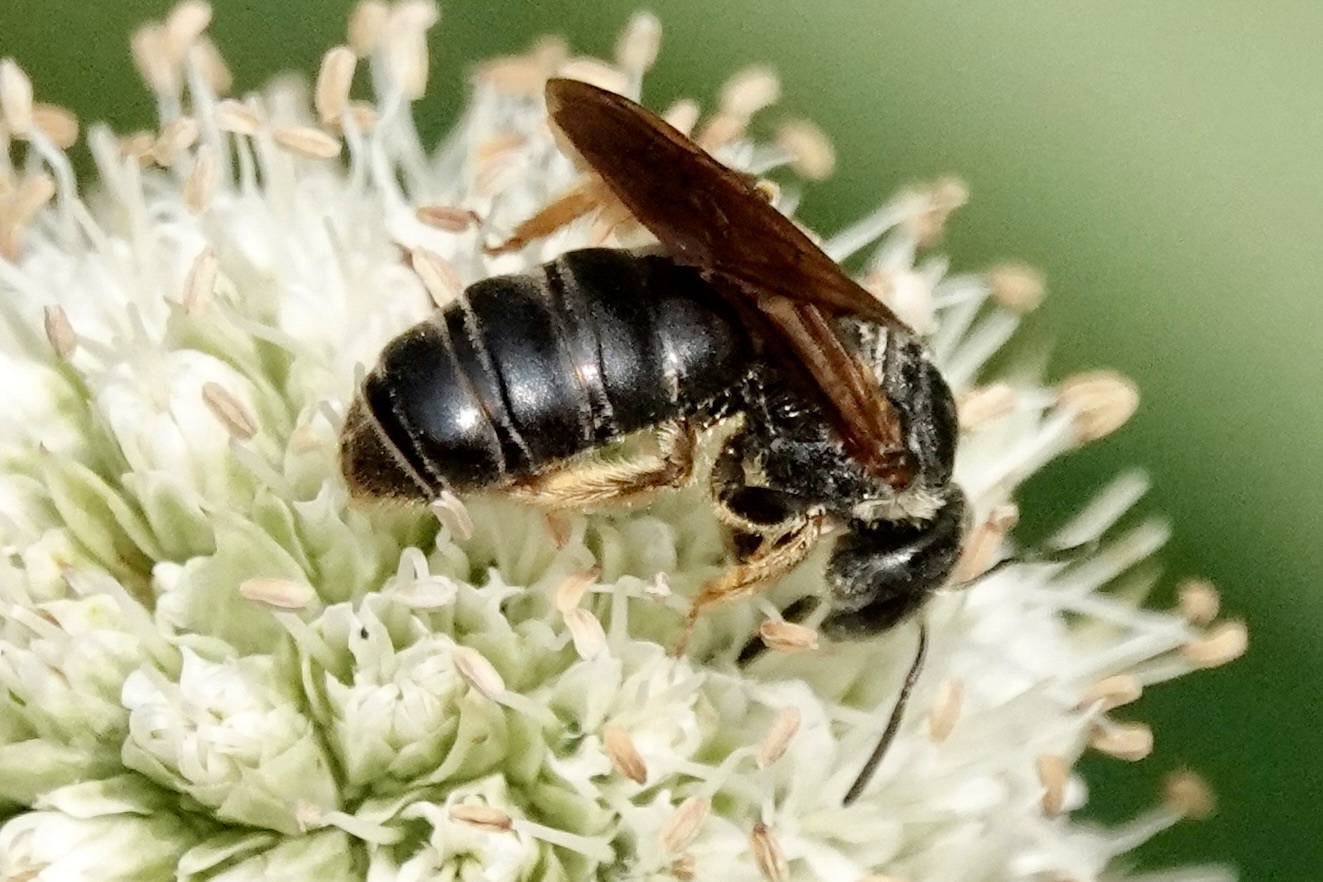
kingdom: Animalia
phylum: Arthropoda
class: Insecta
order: Hymenoptera
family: Halictidae
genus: Halictus
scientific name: Halictus parallelus
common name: Parallel-striped sweat bee
